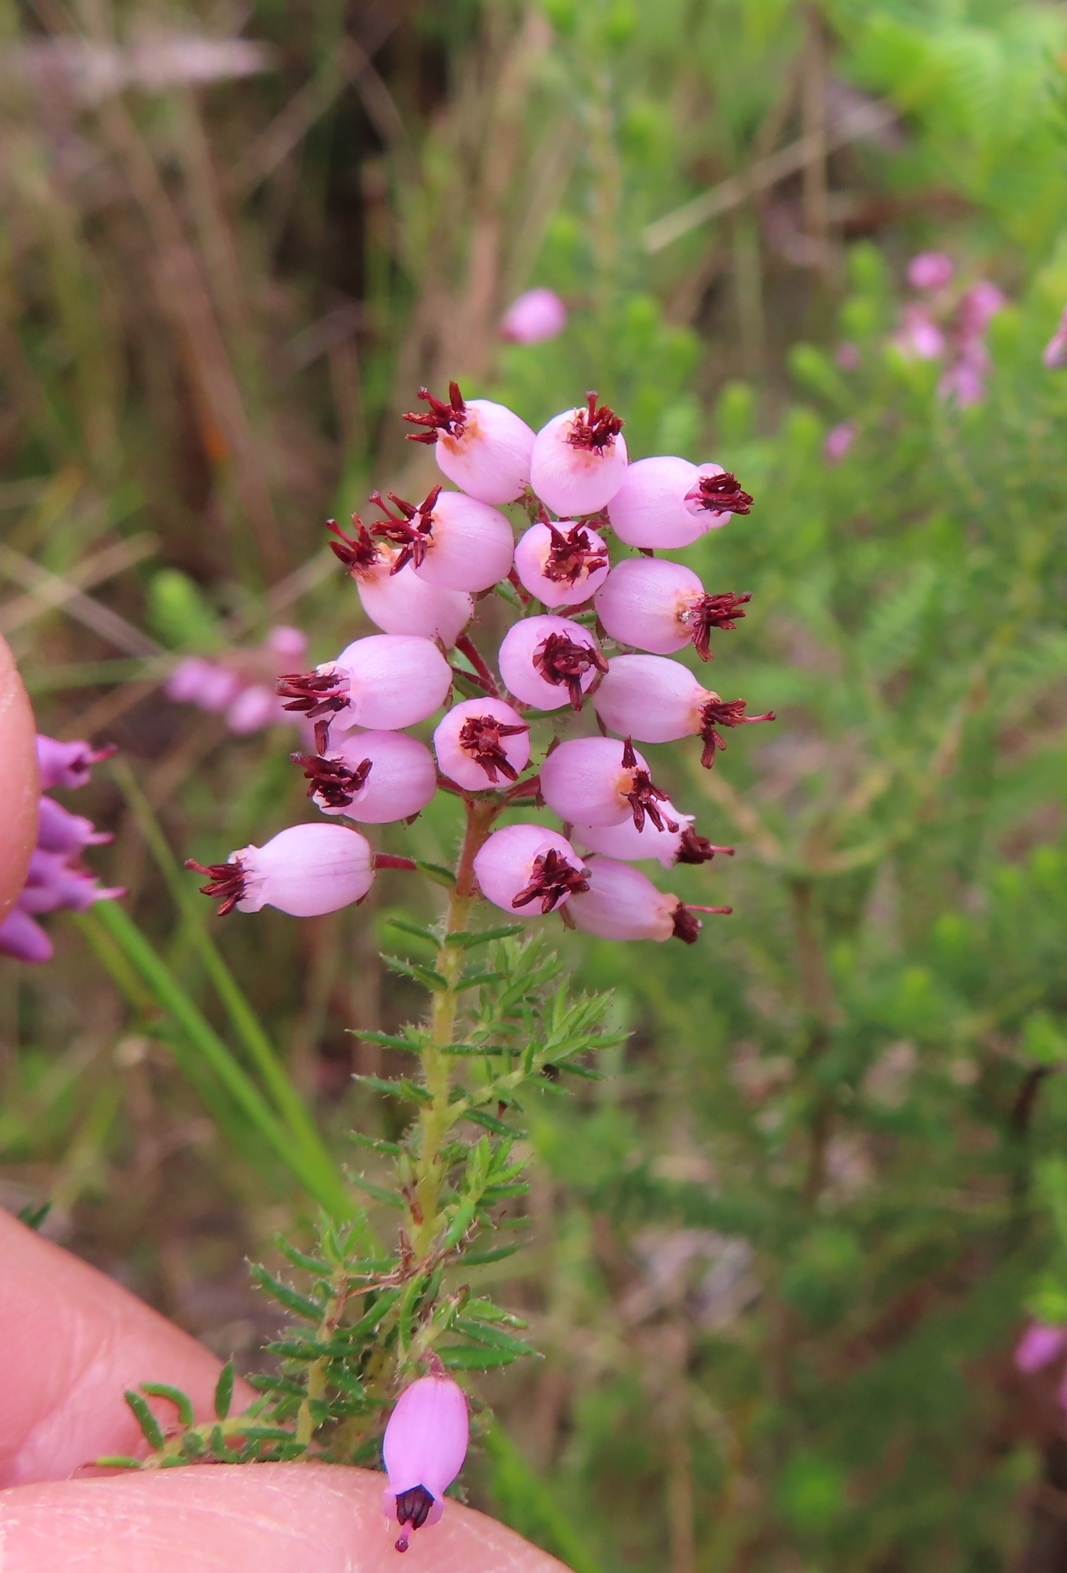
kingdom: Plantae
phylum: Tracheophyta
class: Magnoliopsida
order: Ericales
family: Ericaceae
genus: Erica
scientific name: Erica racemosa
